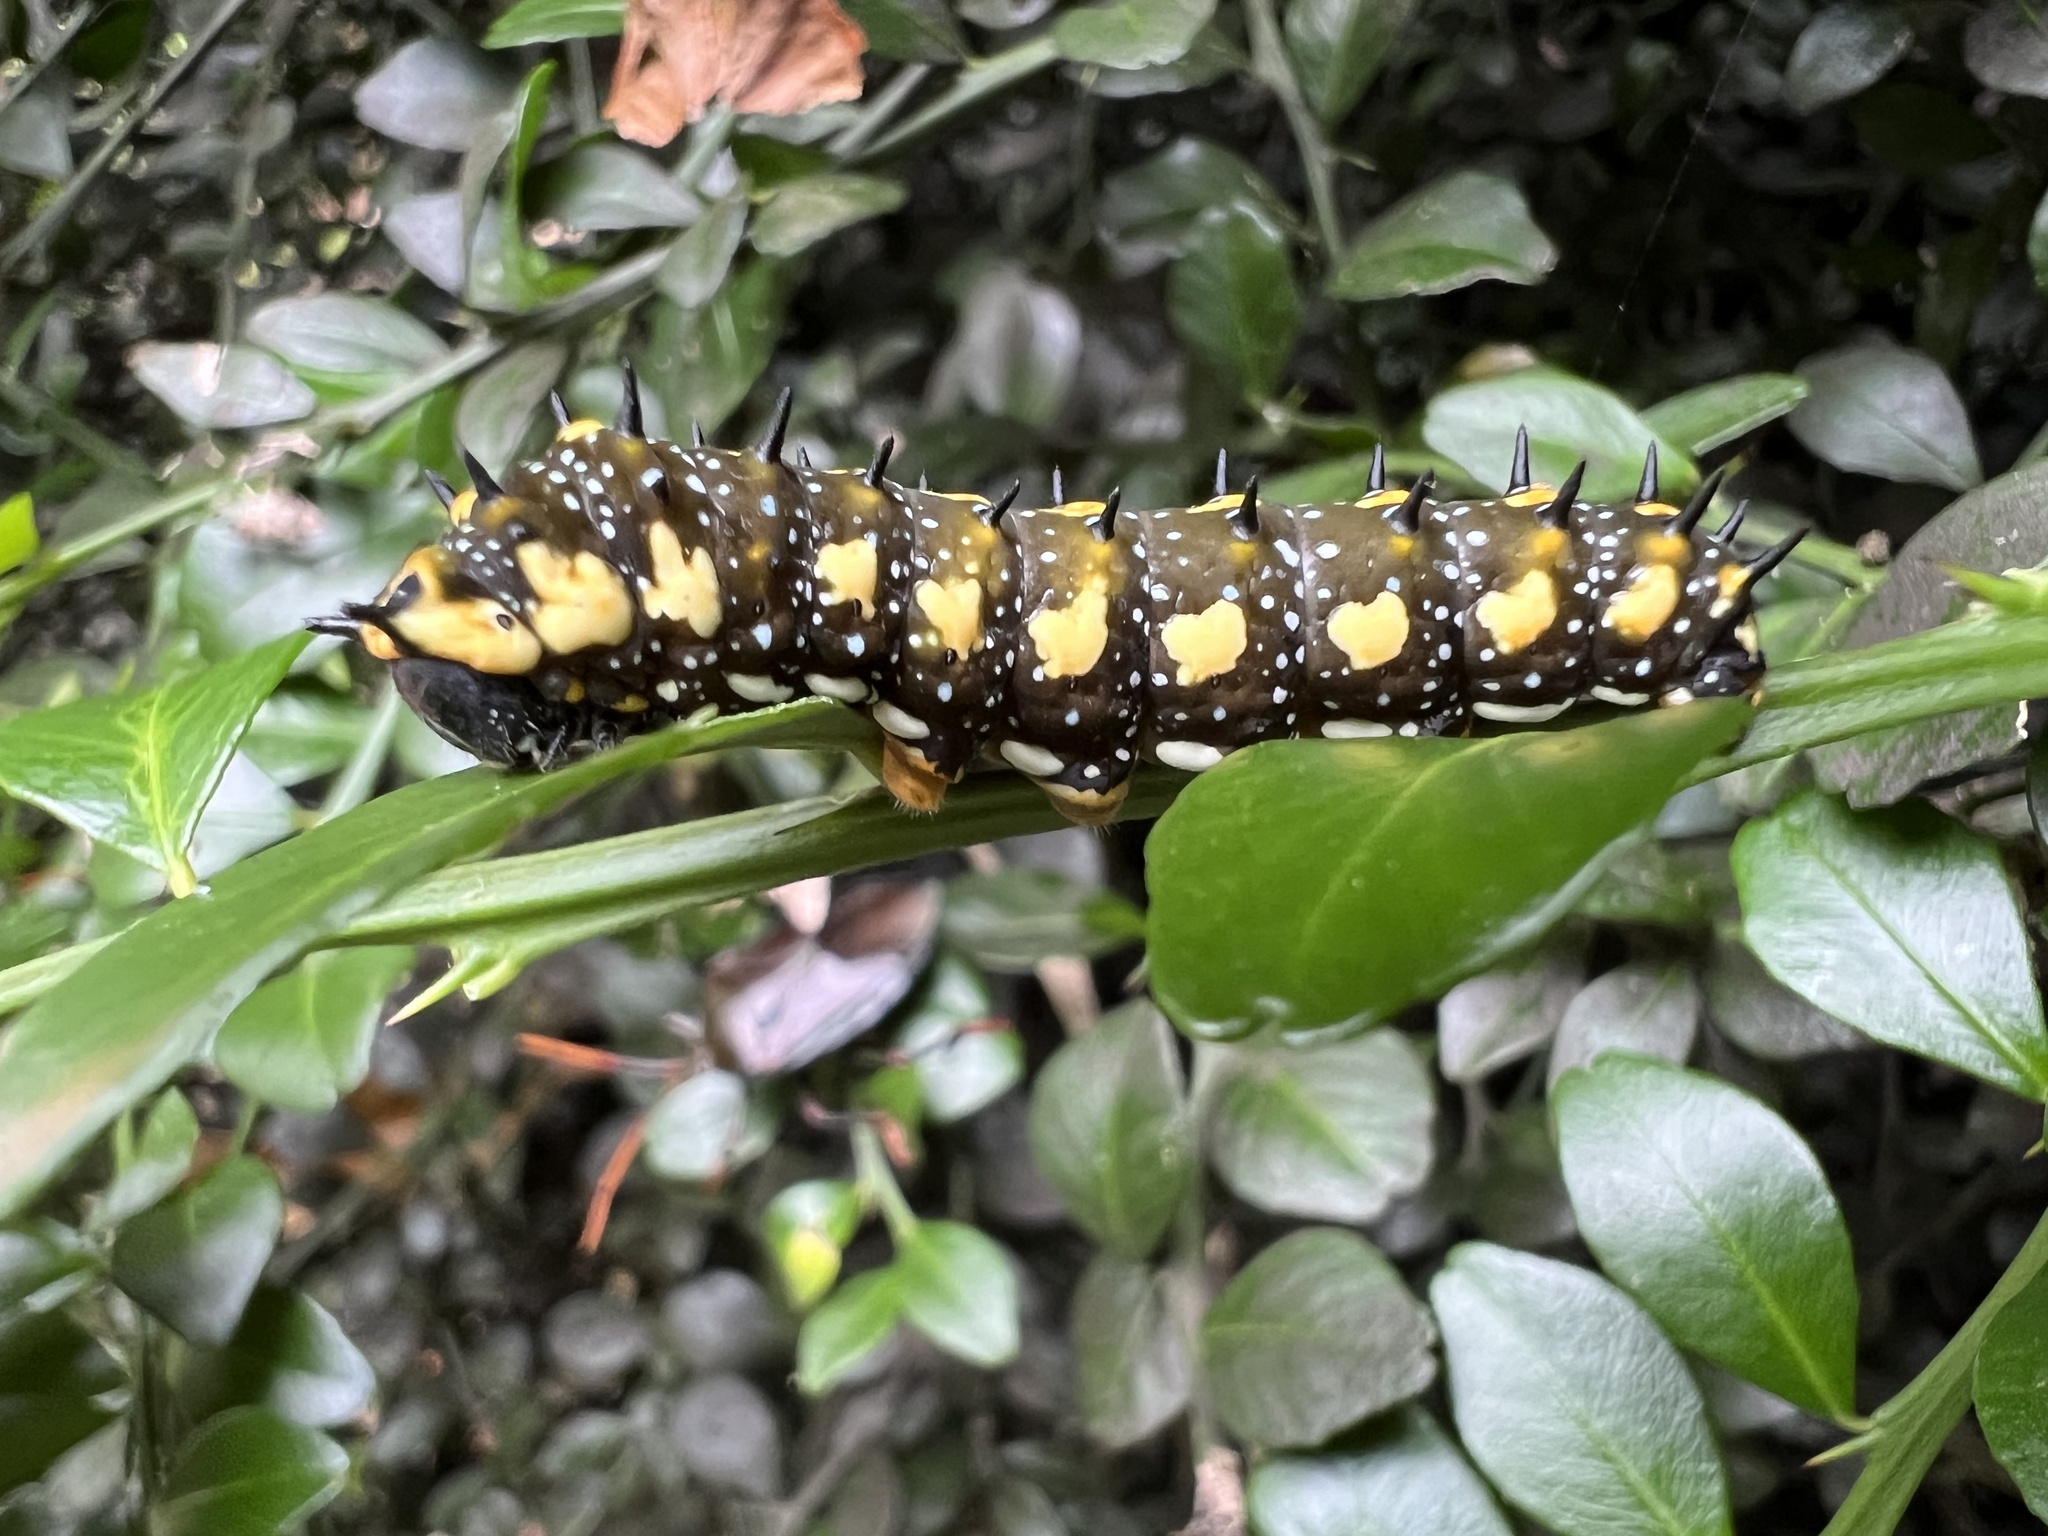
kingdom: Animalia
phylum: Arthropoda
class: Insecta
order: Lepidoptera
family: Papilionidae
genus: Papilio
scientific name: Papilio anactus
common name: Dingy swallowtail
